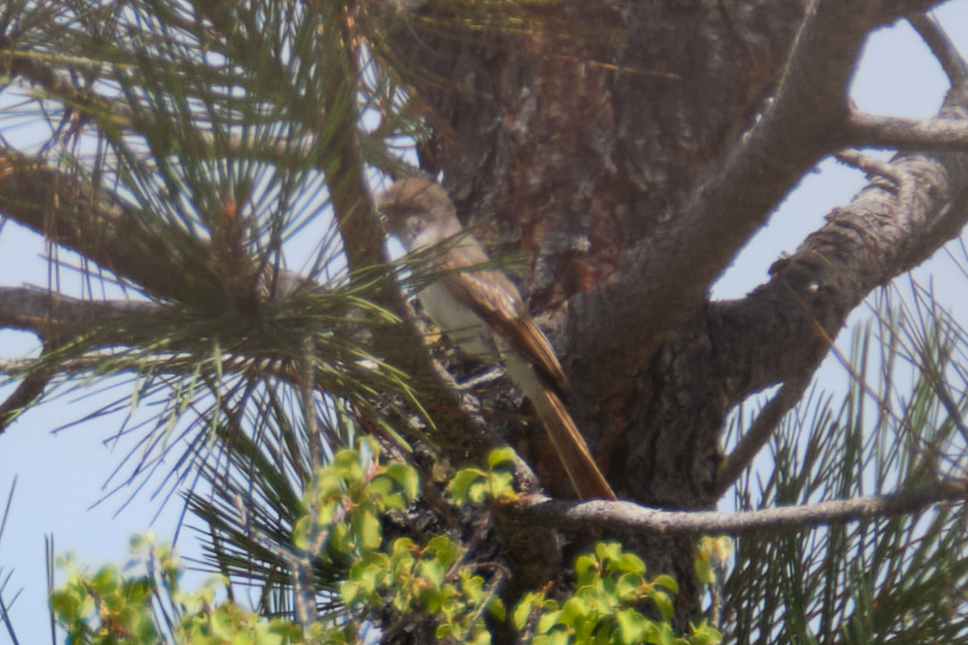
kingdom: Animalia
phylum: Chordata
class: Aves
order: Passeriformes
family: Tyrannidae
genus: Myiarchus
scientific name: Myiarchus cinerascens
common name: Ash-throated flycatcher
